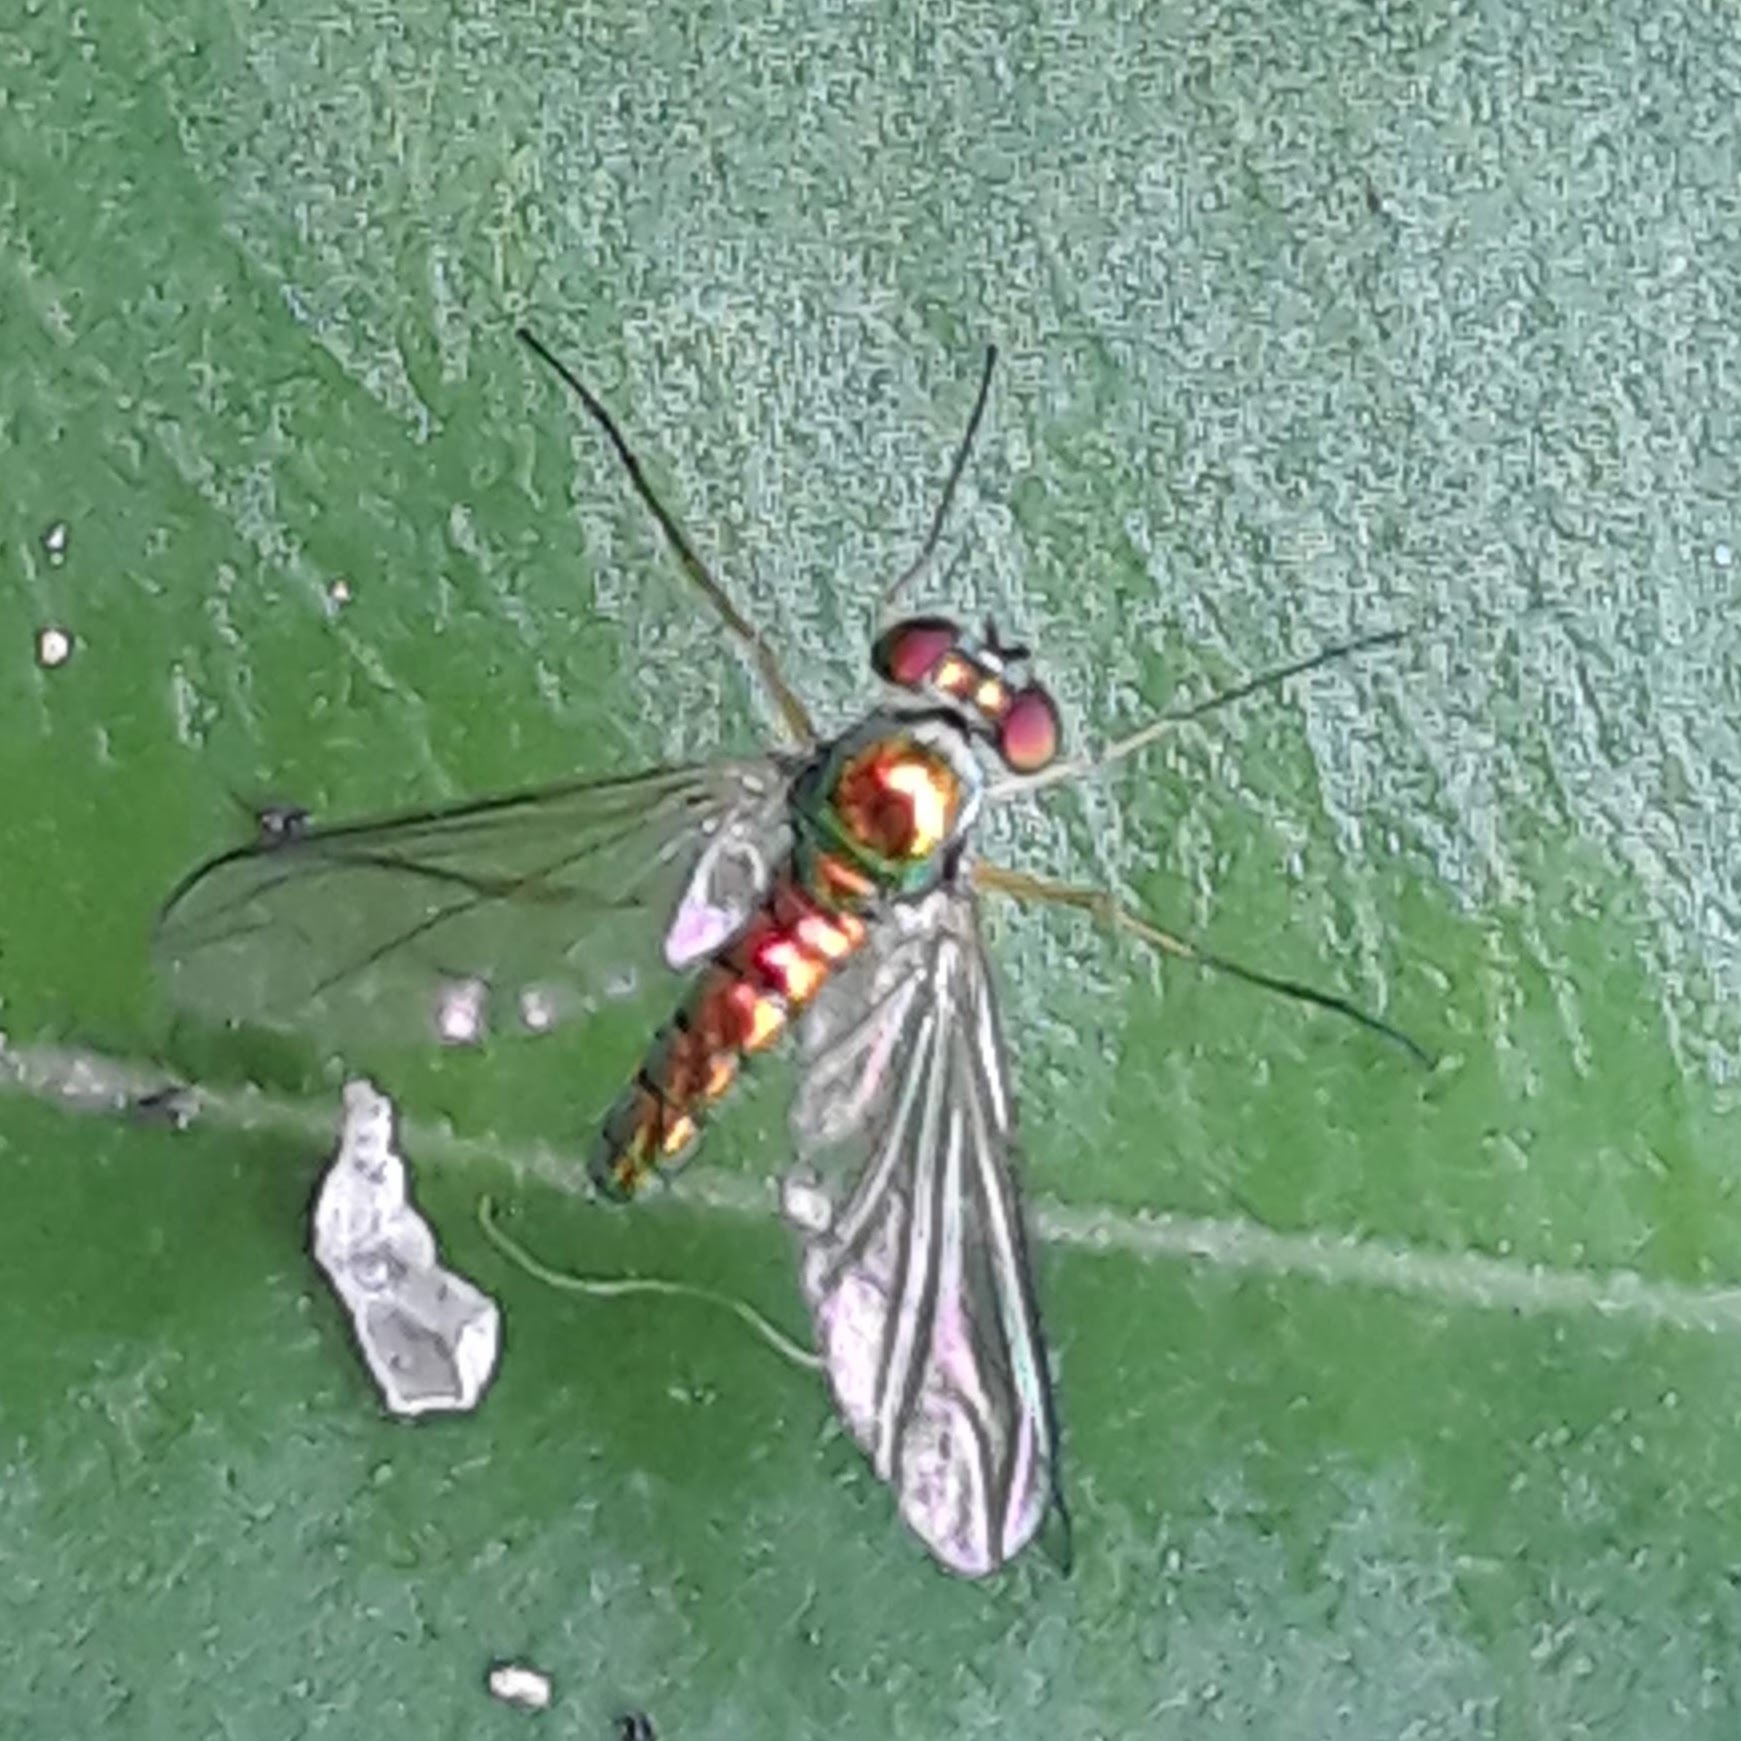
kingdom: Animalia
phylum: Arthropoda
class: Insecta
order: Diptera
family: Dolichopodidae
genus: Amblypsilopus
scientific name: Amblypsilopus scintillans
